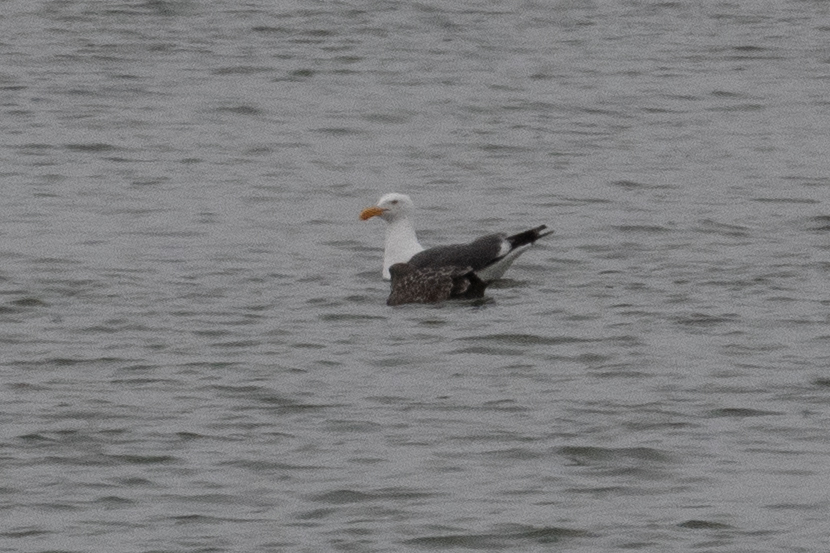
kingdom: Animalia
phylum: Chordata
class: Aves
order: Charadriiformes
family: Laridae
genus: Larus
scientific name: Larus occidentalis
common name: Western gull
